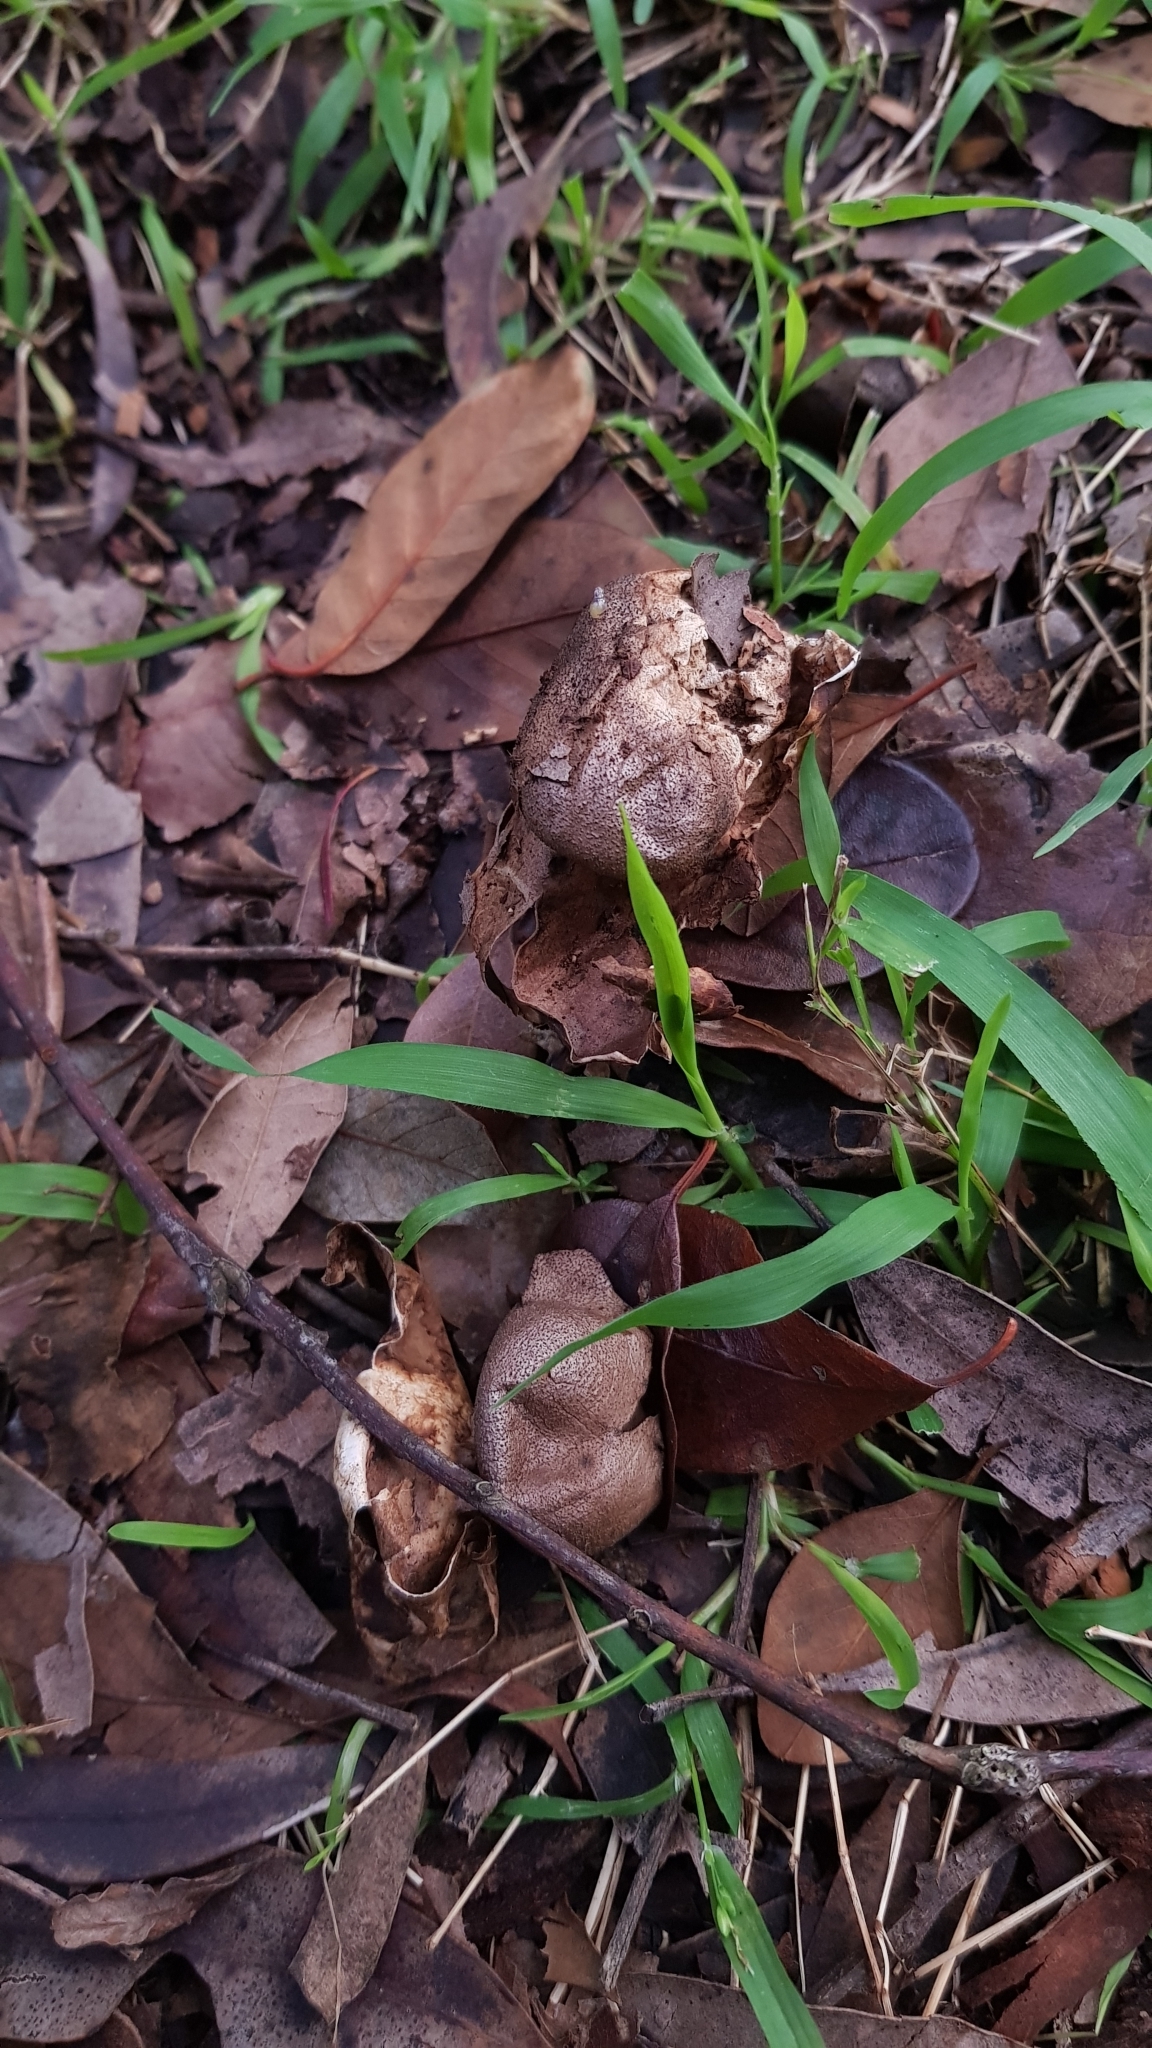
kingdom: Fungi
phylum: Basidiomycota
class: Agaricomycetes
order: Geastrales
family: Geastraceae
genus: Myriostoma
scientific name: Myriostoma australianum
